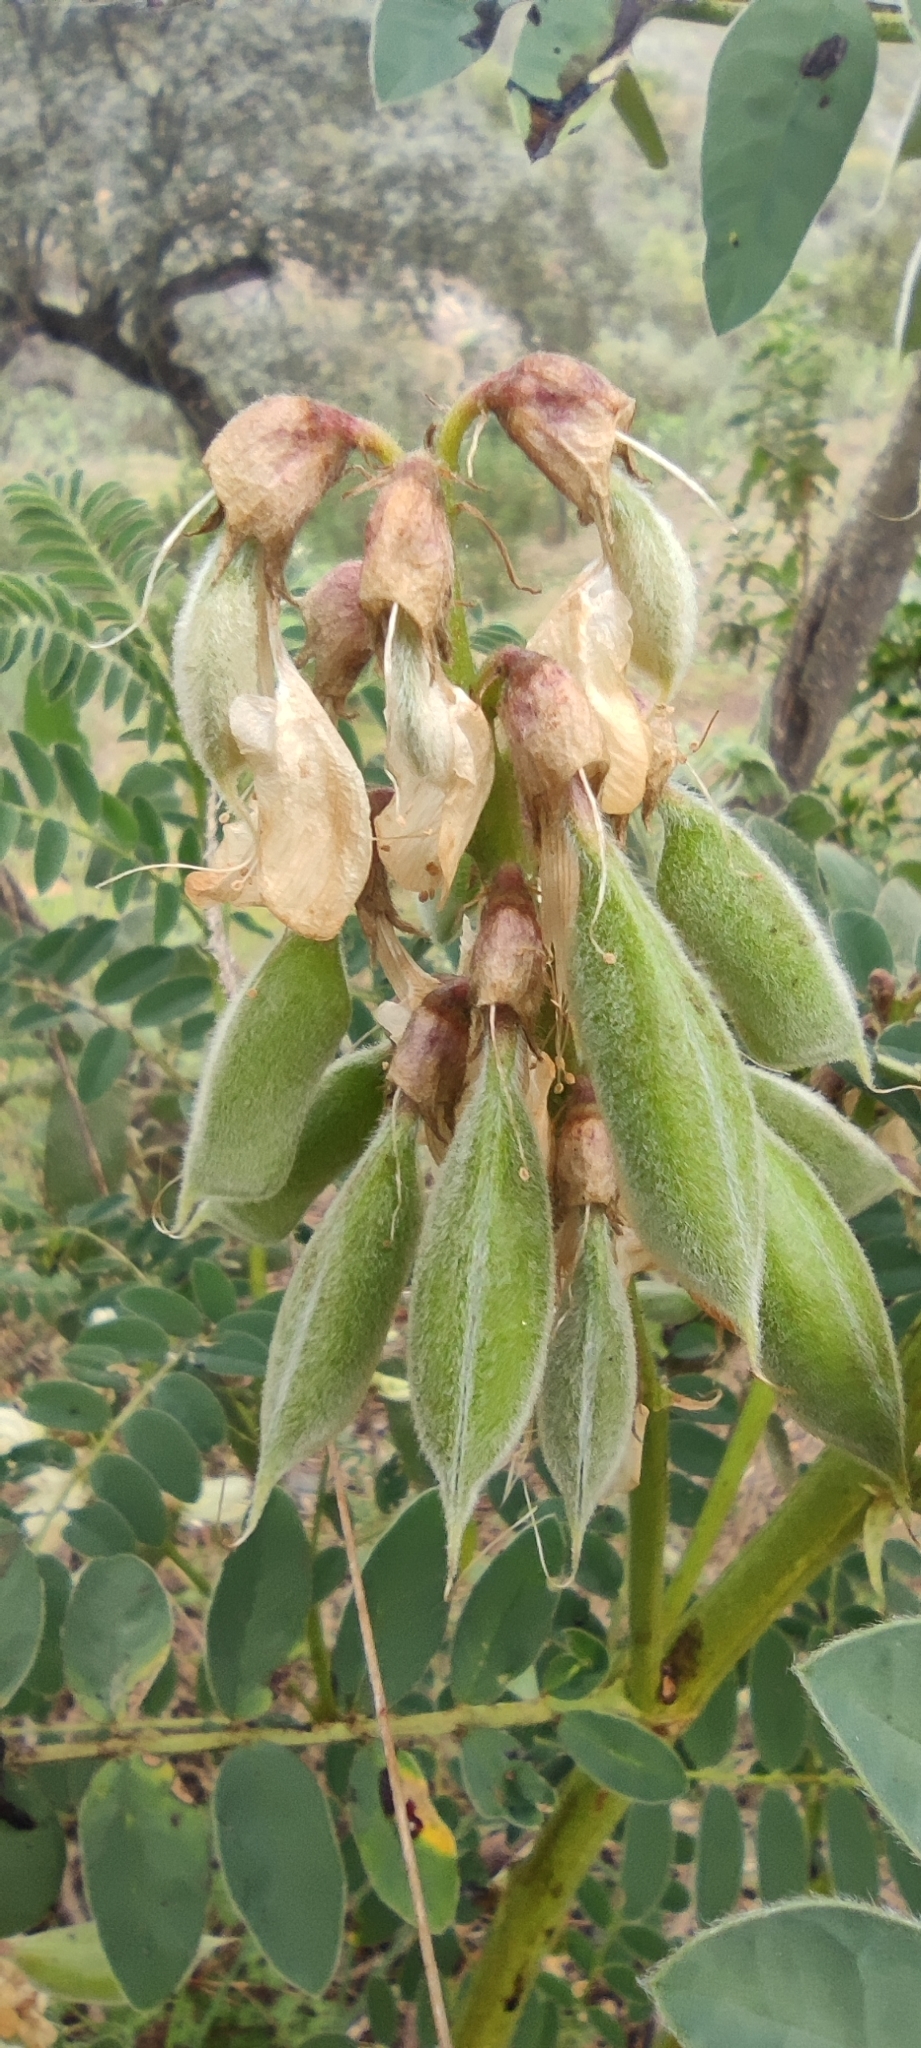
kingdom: Plantae
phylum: Tracheophyta
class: Magnoliopsida
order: Fabales
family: Fabaceae
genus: Erophaca
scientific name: Erophaca baetica
